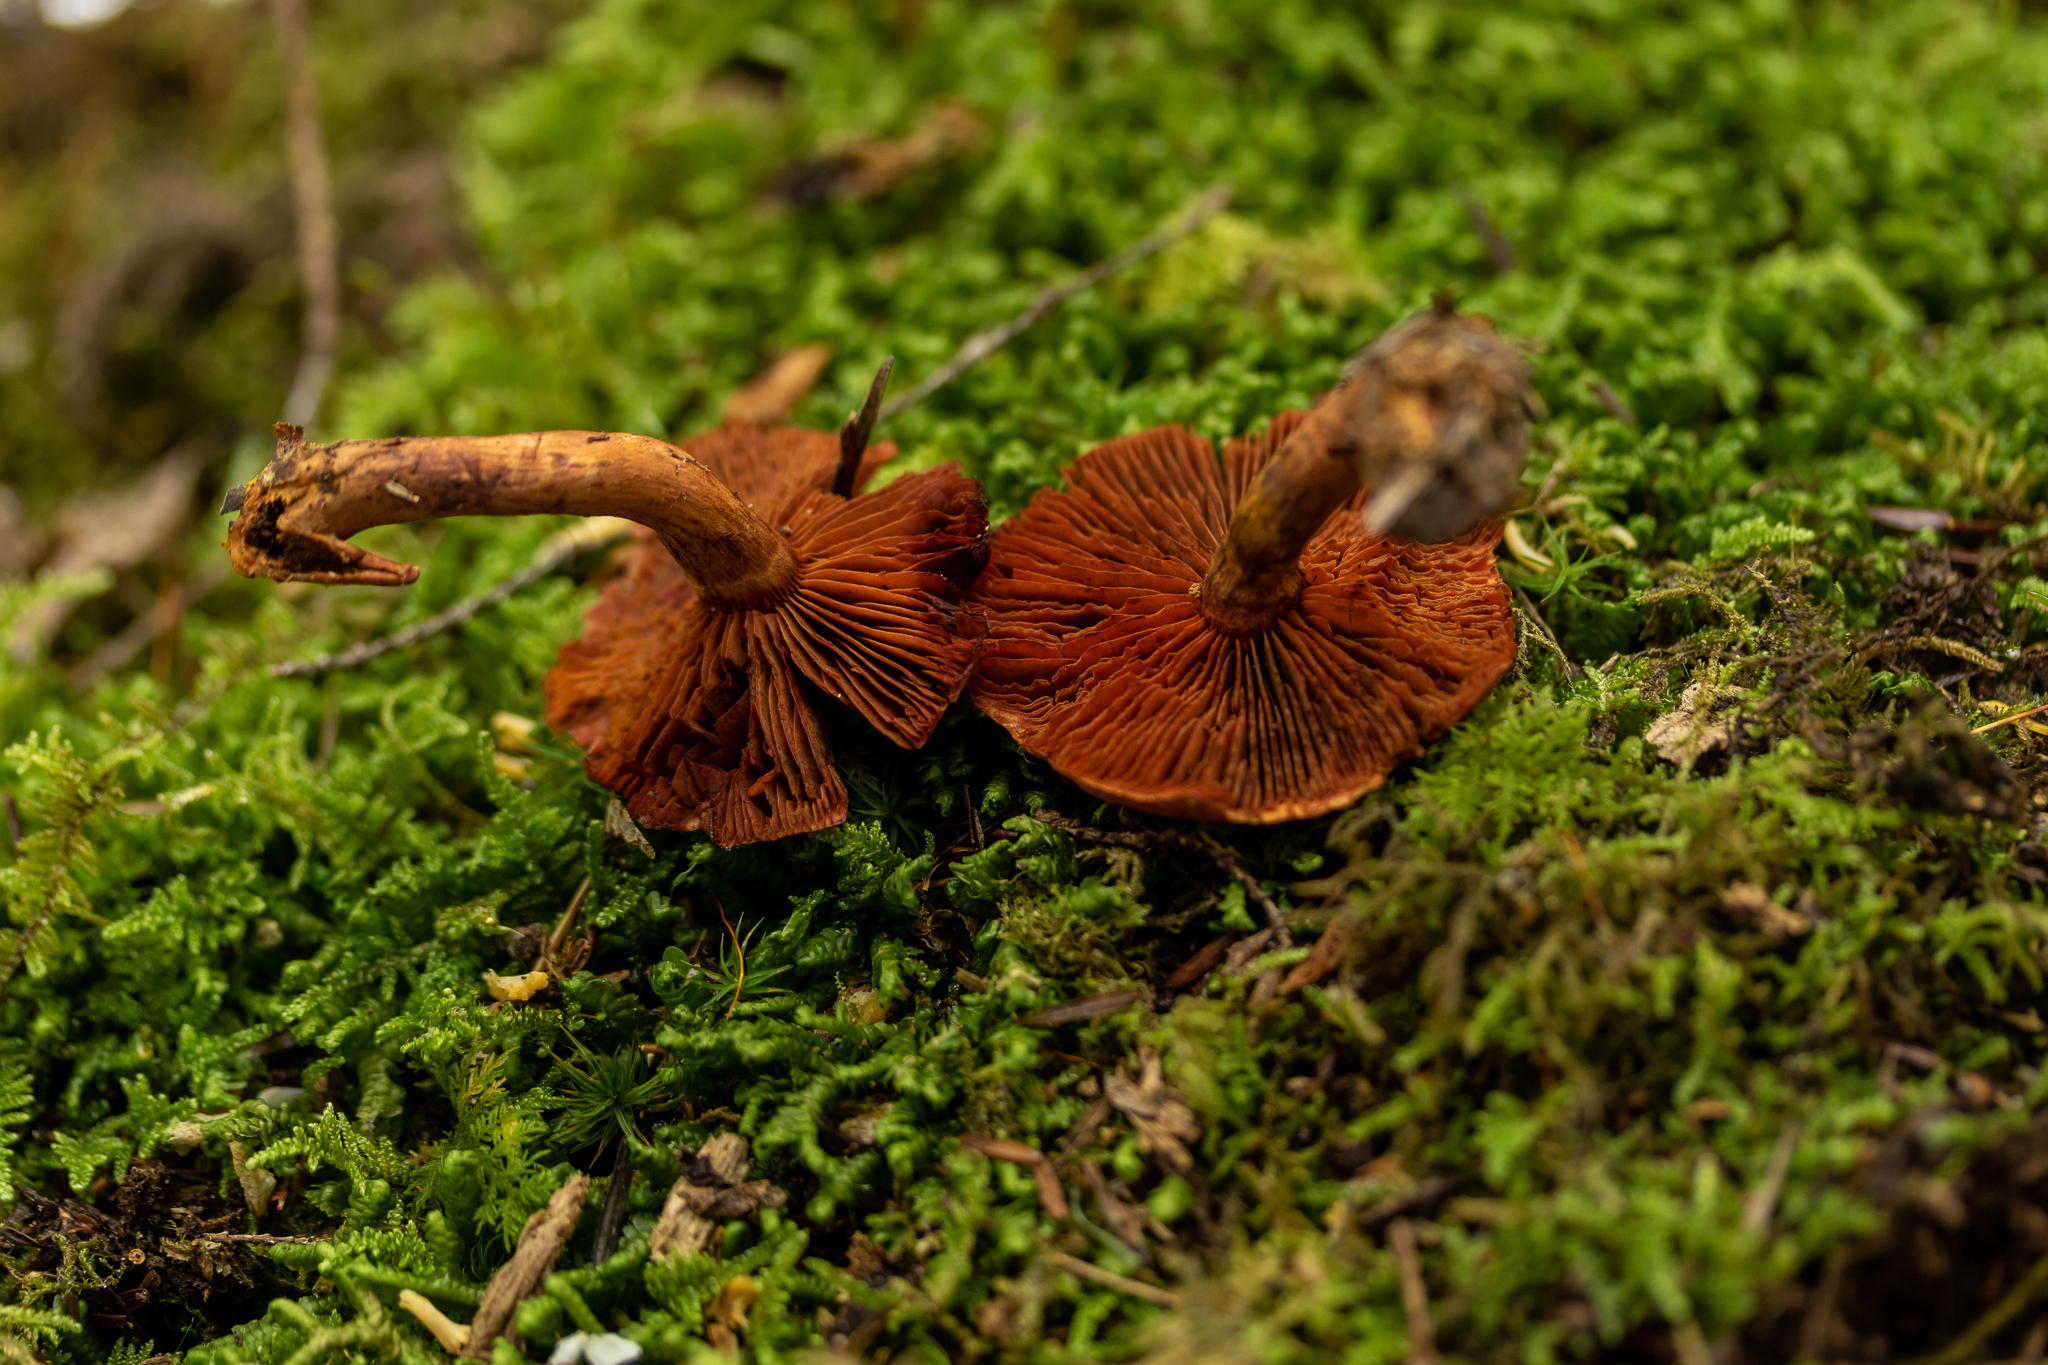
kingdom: Fungi
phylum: Basidiomycota
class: Agaricomycetes
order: Agaricales
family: Cortinariaceae
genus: Cortinarius
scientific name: Cortinarius harrisonii
